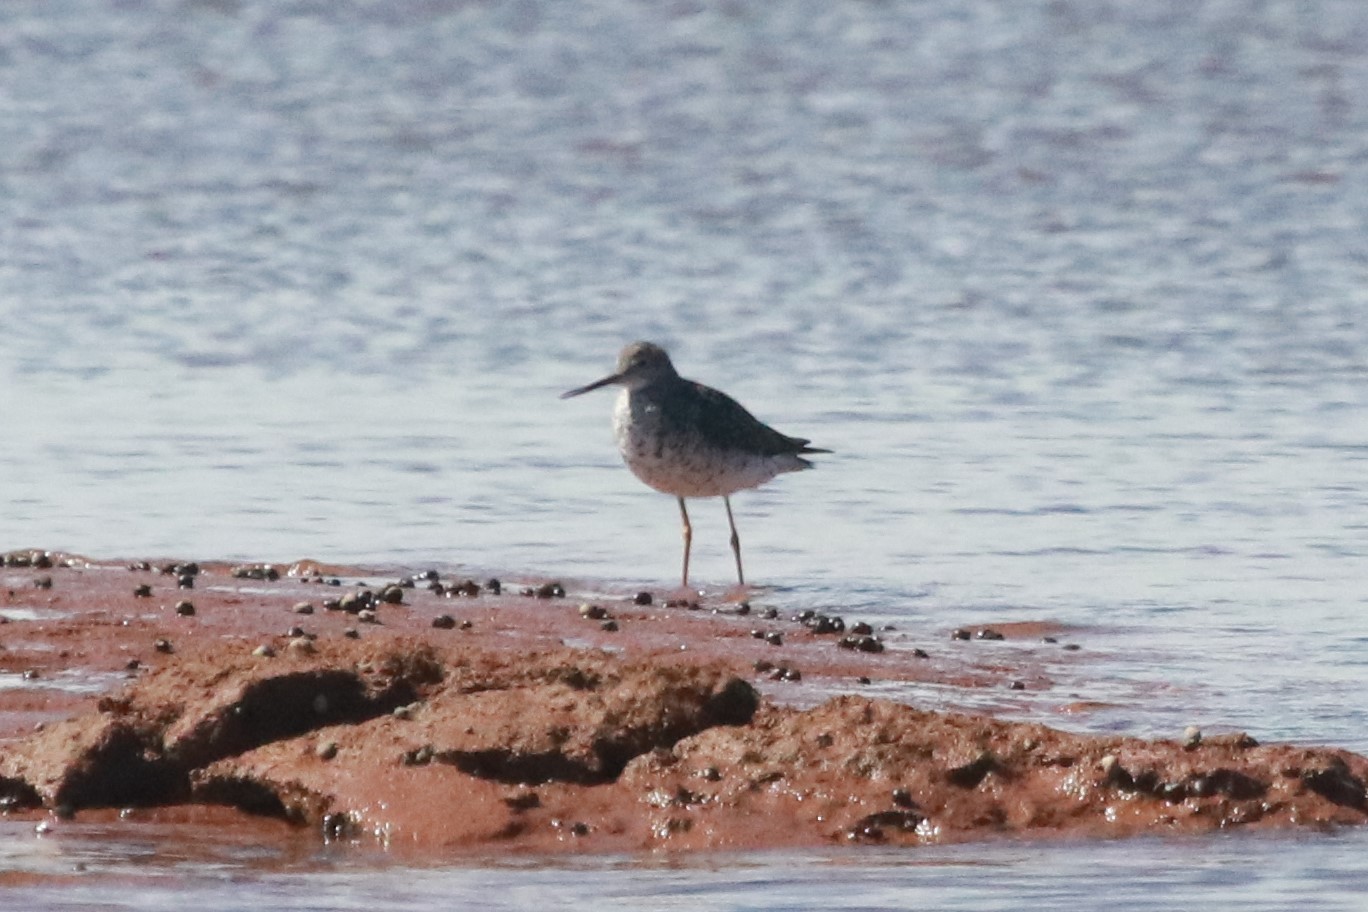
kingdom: Animalia
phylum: Chordata
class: Aves
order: Charadriiformes
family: Scolopacidae
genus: Tringa
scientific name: Tringa melanoleuca
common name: Greater yellowlegs
